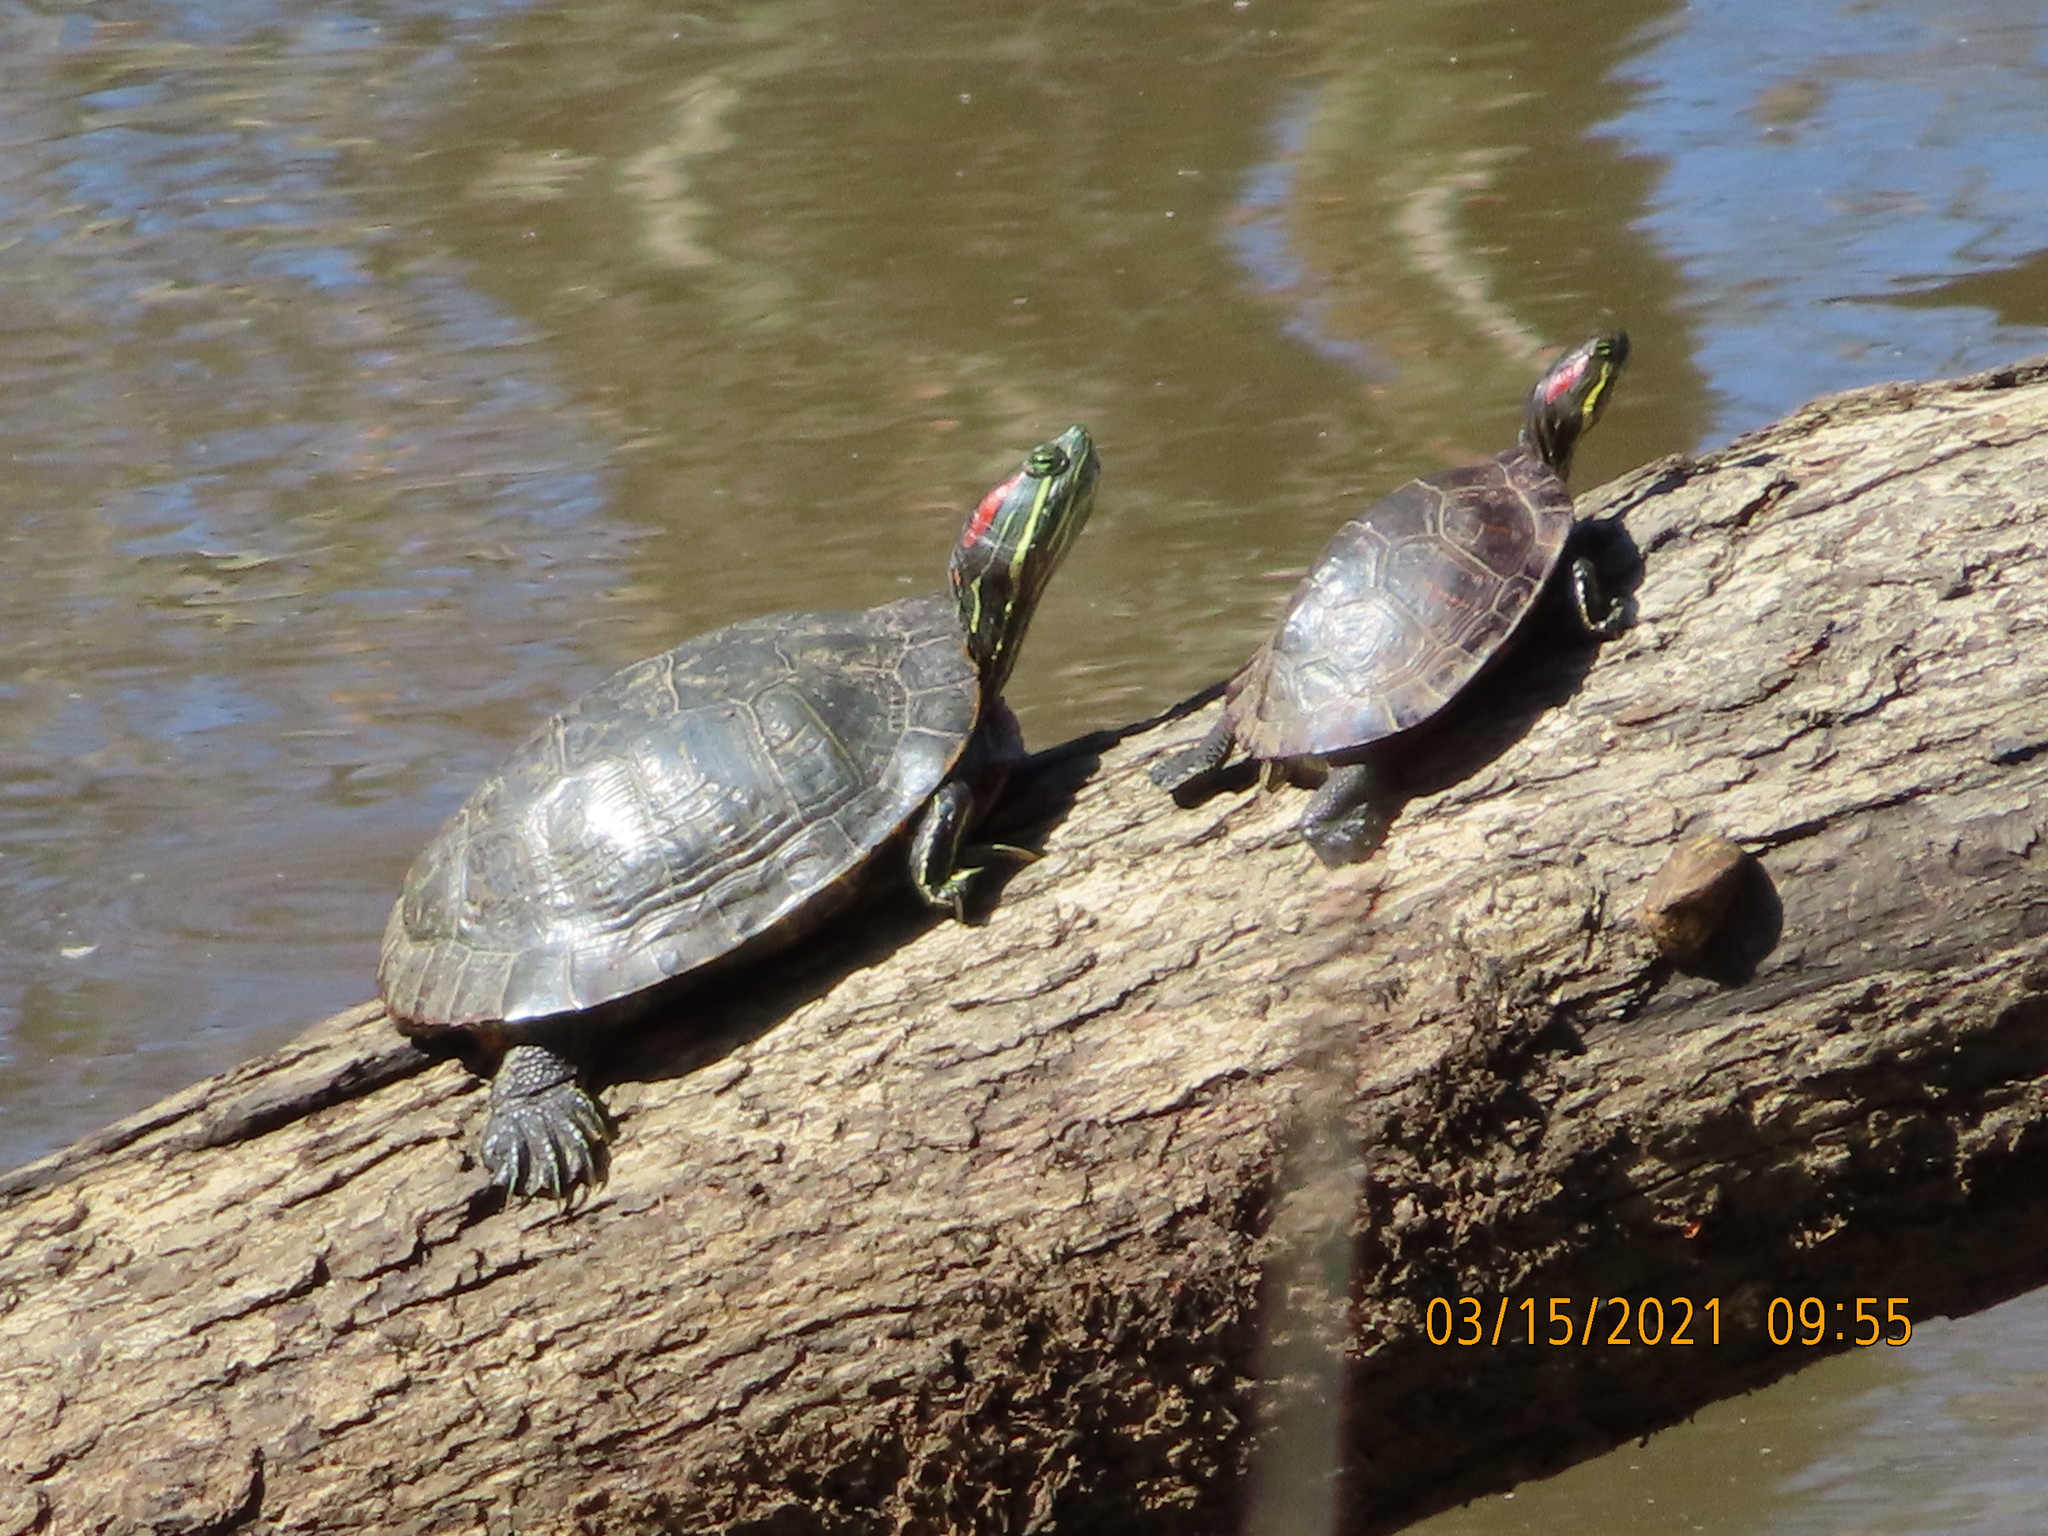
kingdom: Animalia
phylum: Chordata
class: Testudines
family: Emydidae
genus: Trachemys
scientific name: Trachemys scripta
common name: Slider
